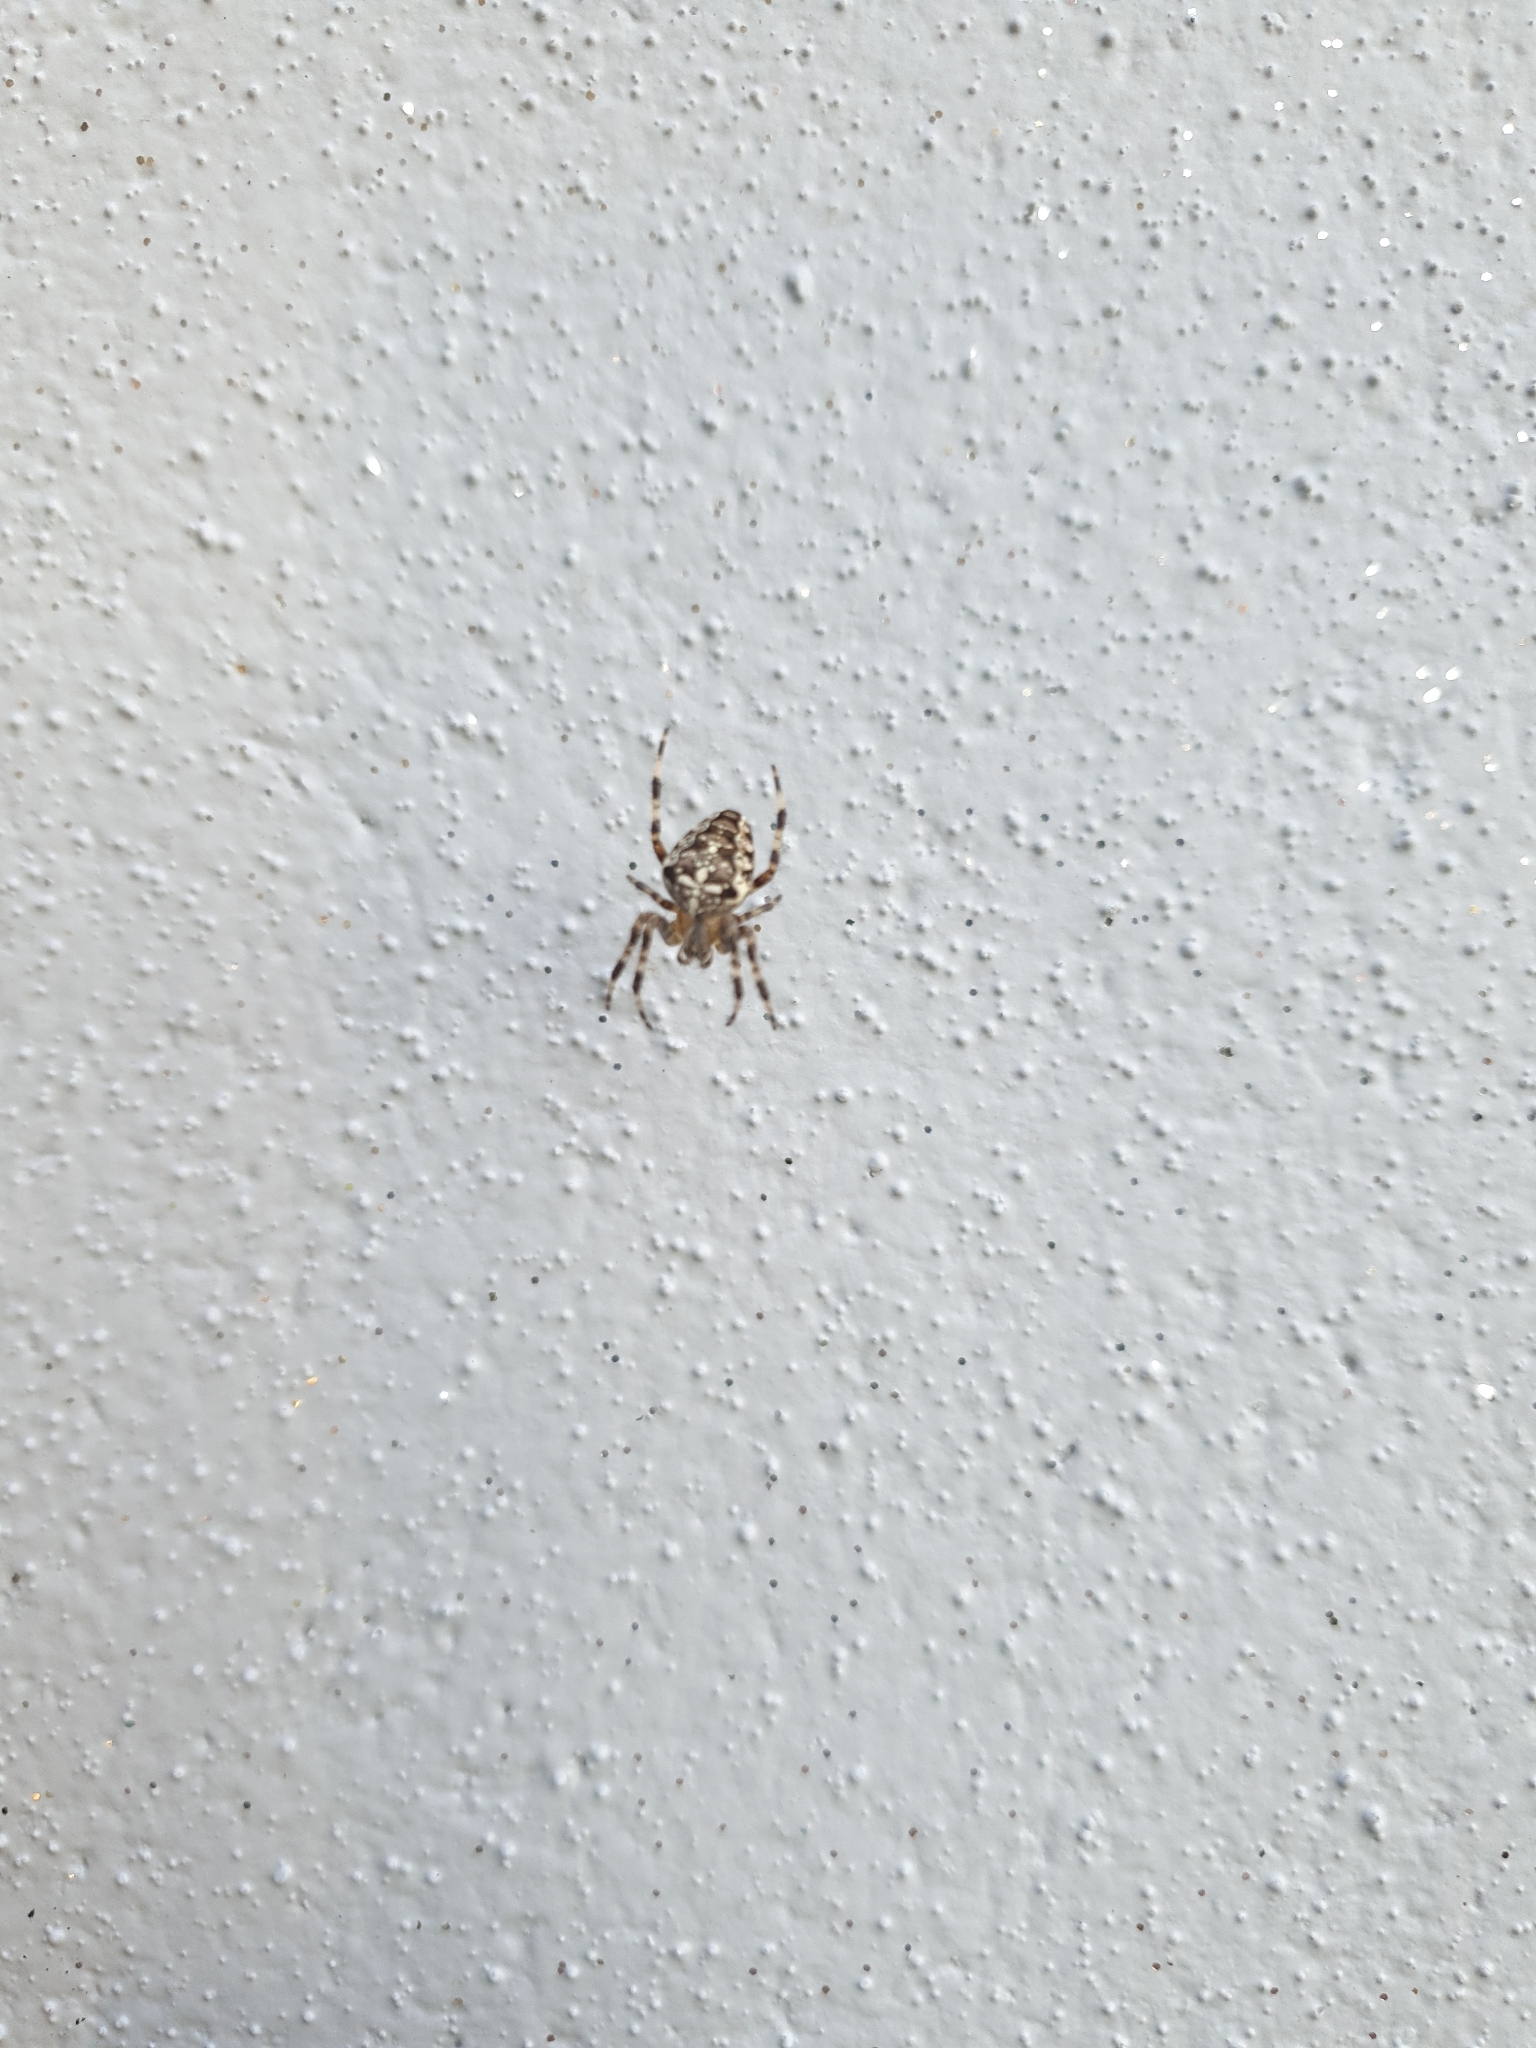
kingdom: Animalia
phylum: Arthropoda
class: Arachnida
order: Araneae
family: Araneidae
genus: Araneus
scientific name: Araneus diadematus
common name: Cross orbweaver
